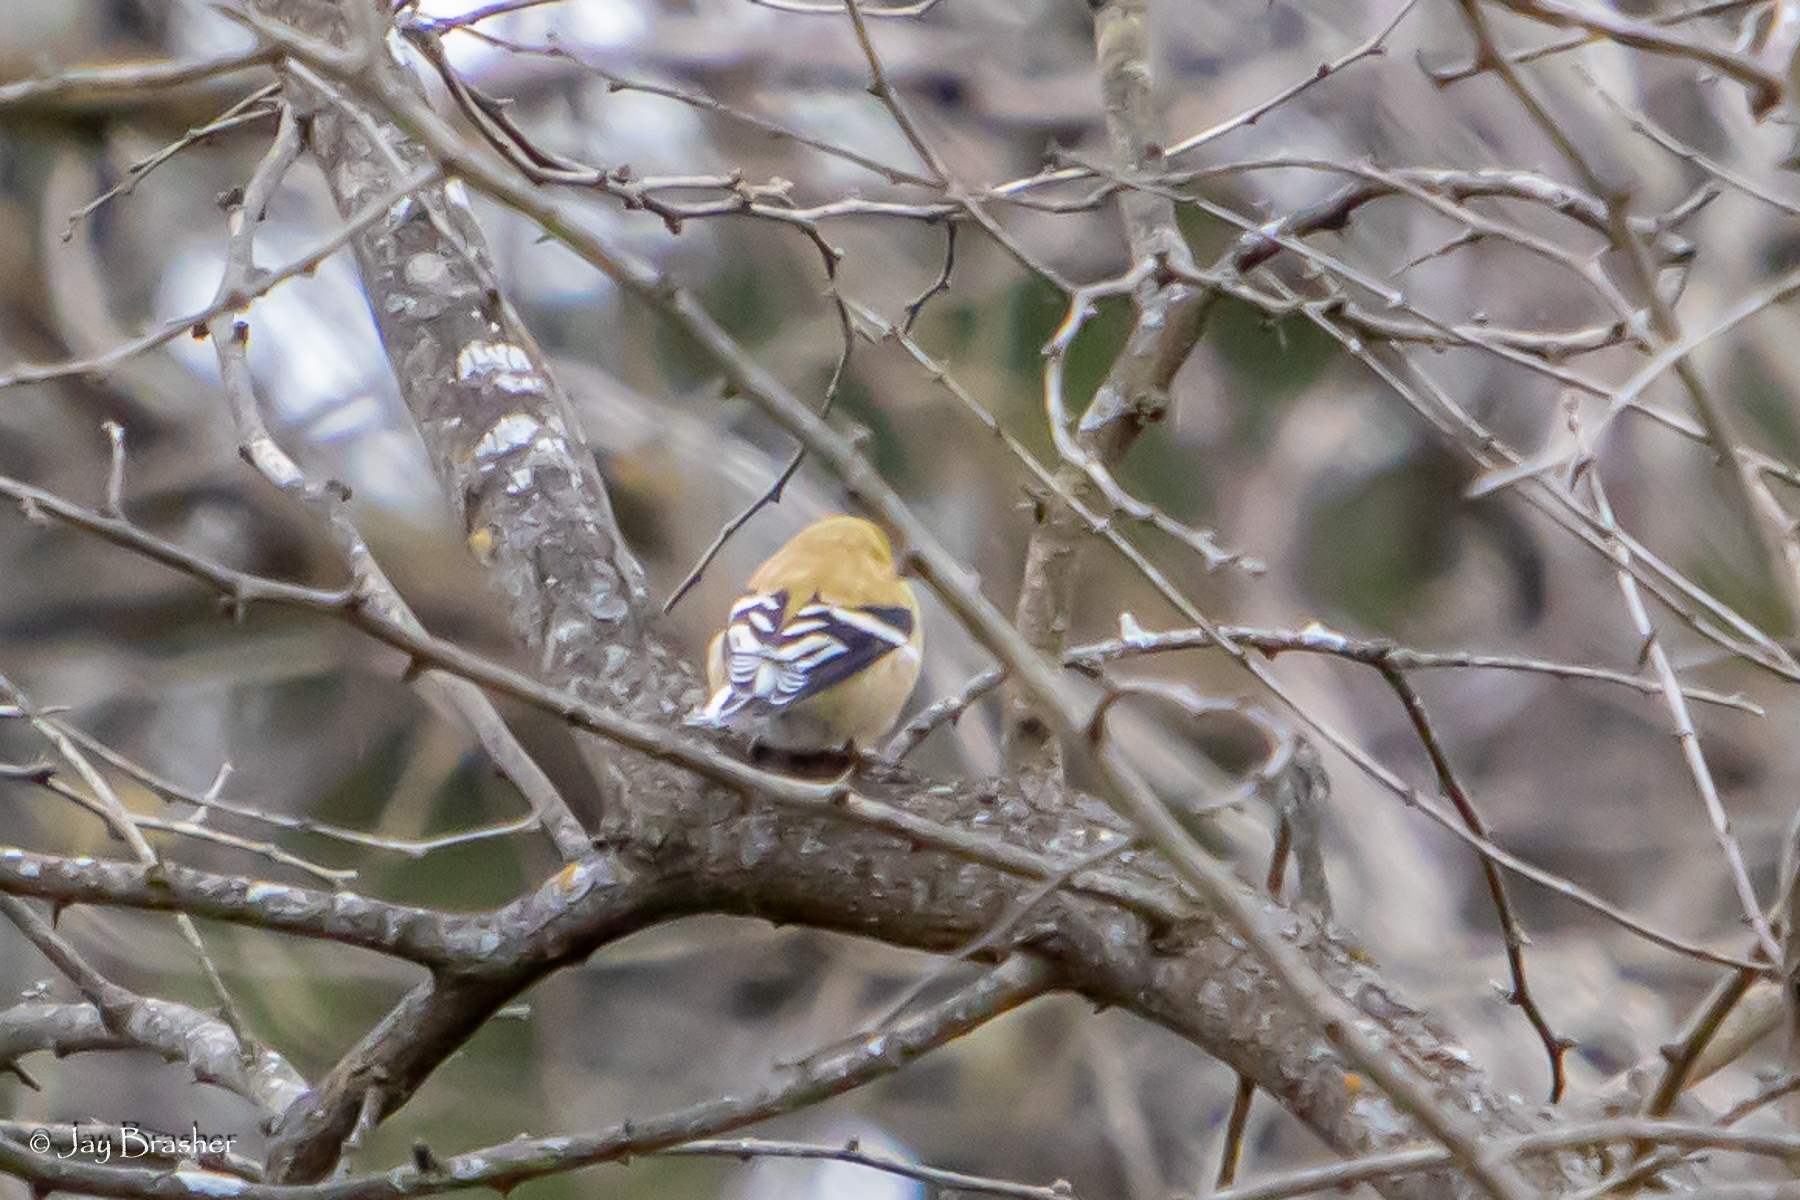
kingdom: Animalia
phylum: Chordata
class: Aves
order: Passeriformes
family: Fringillidae
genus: Spinus
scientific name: Spinus tristis
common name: American goldfinch
